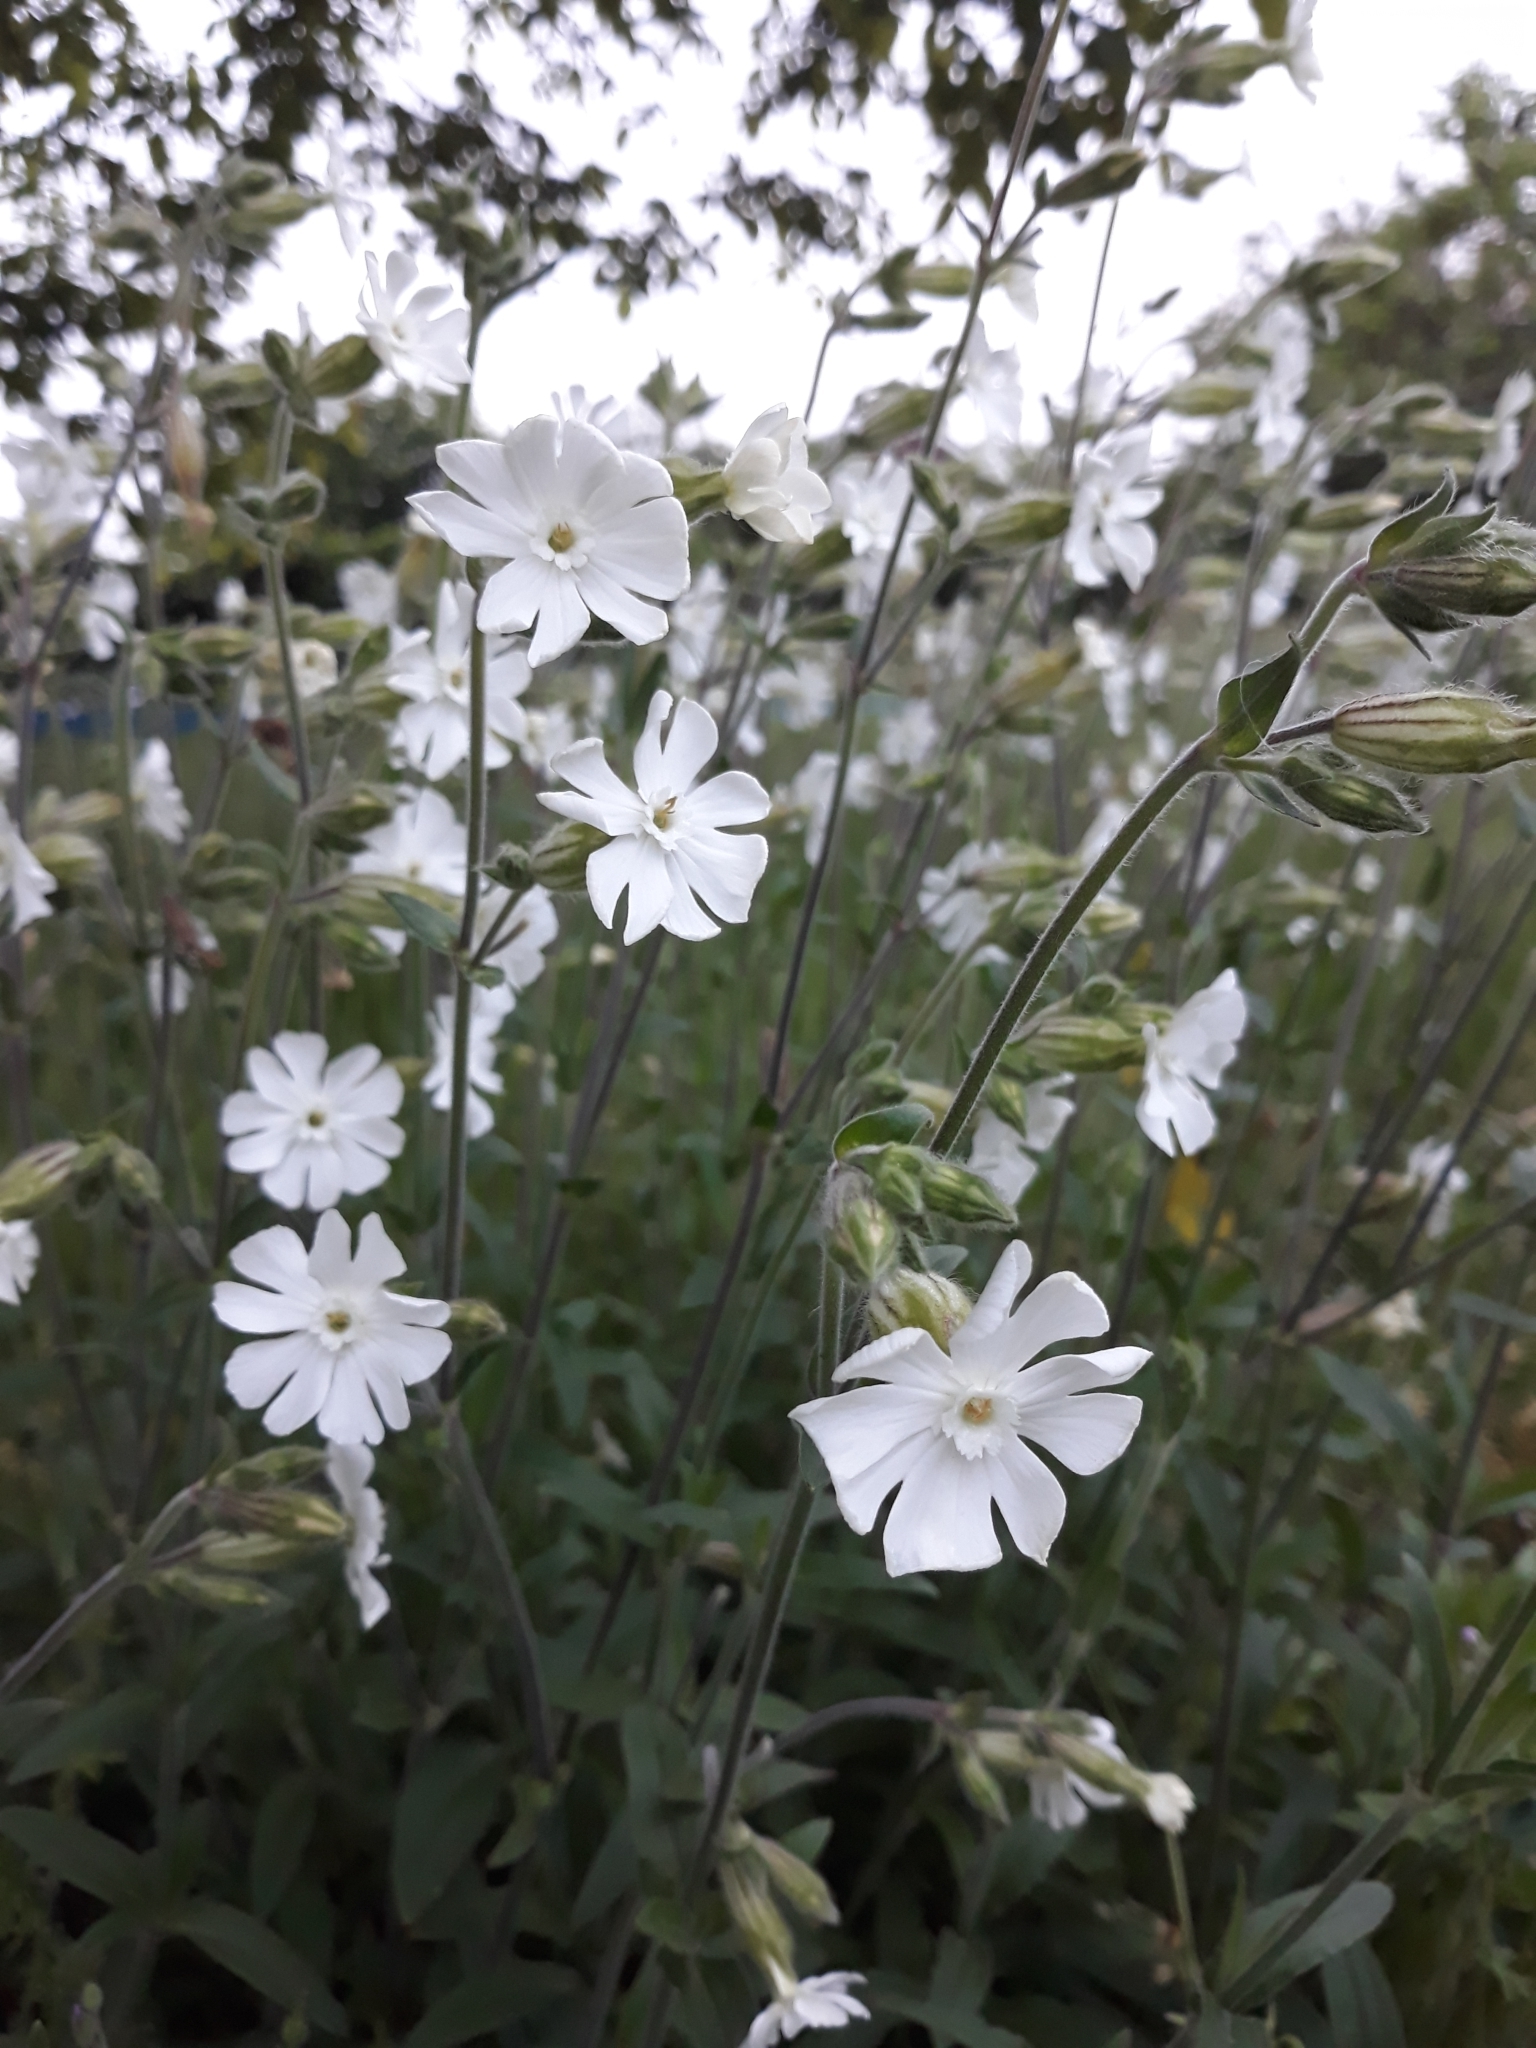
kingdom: Plantae
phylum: Tracheophyta
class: Magnoliopsida
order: Caryophyllales
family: Caryophyllaceae
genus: Silene
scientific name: Silene latifolia
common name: White campion
